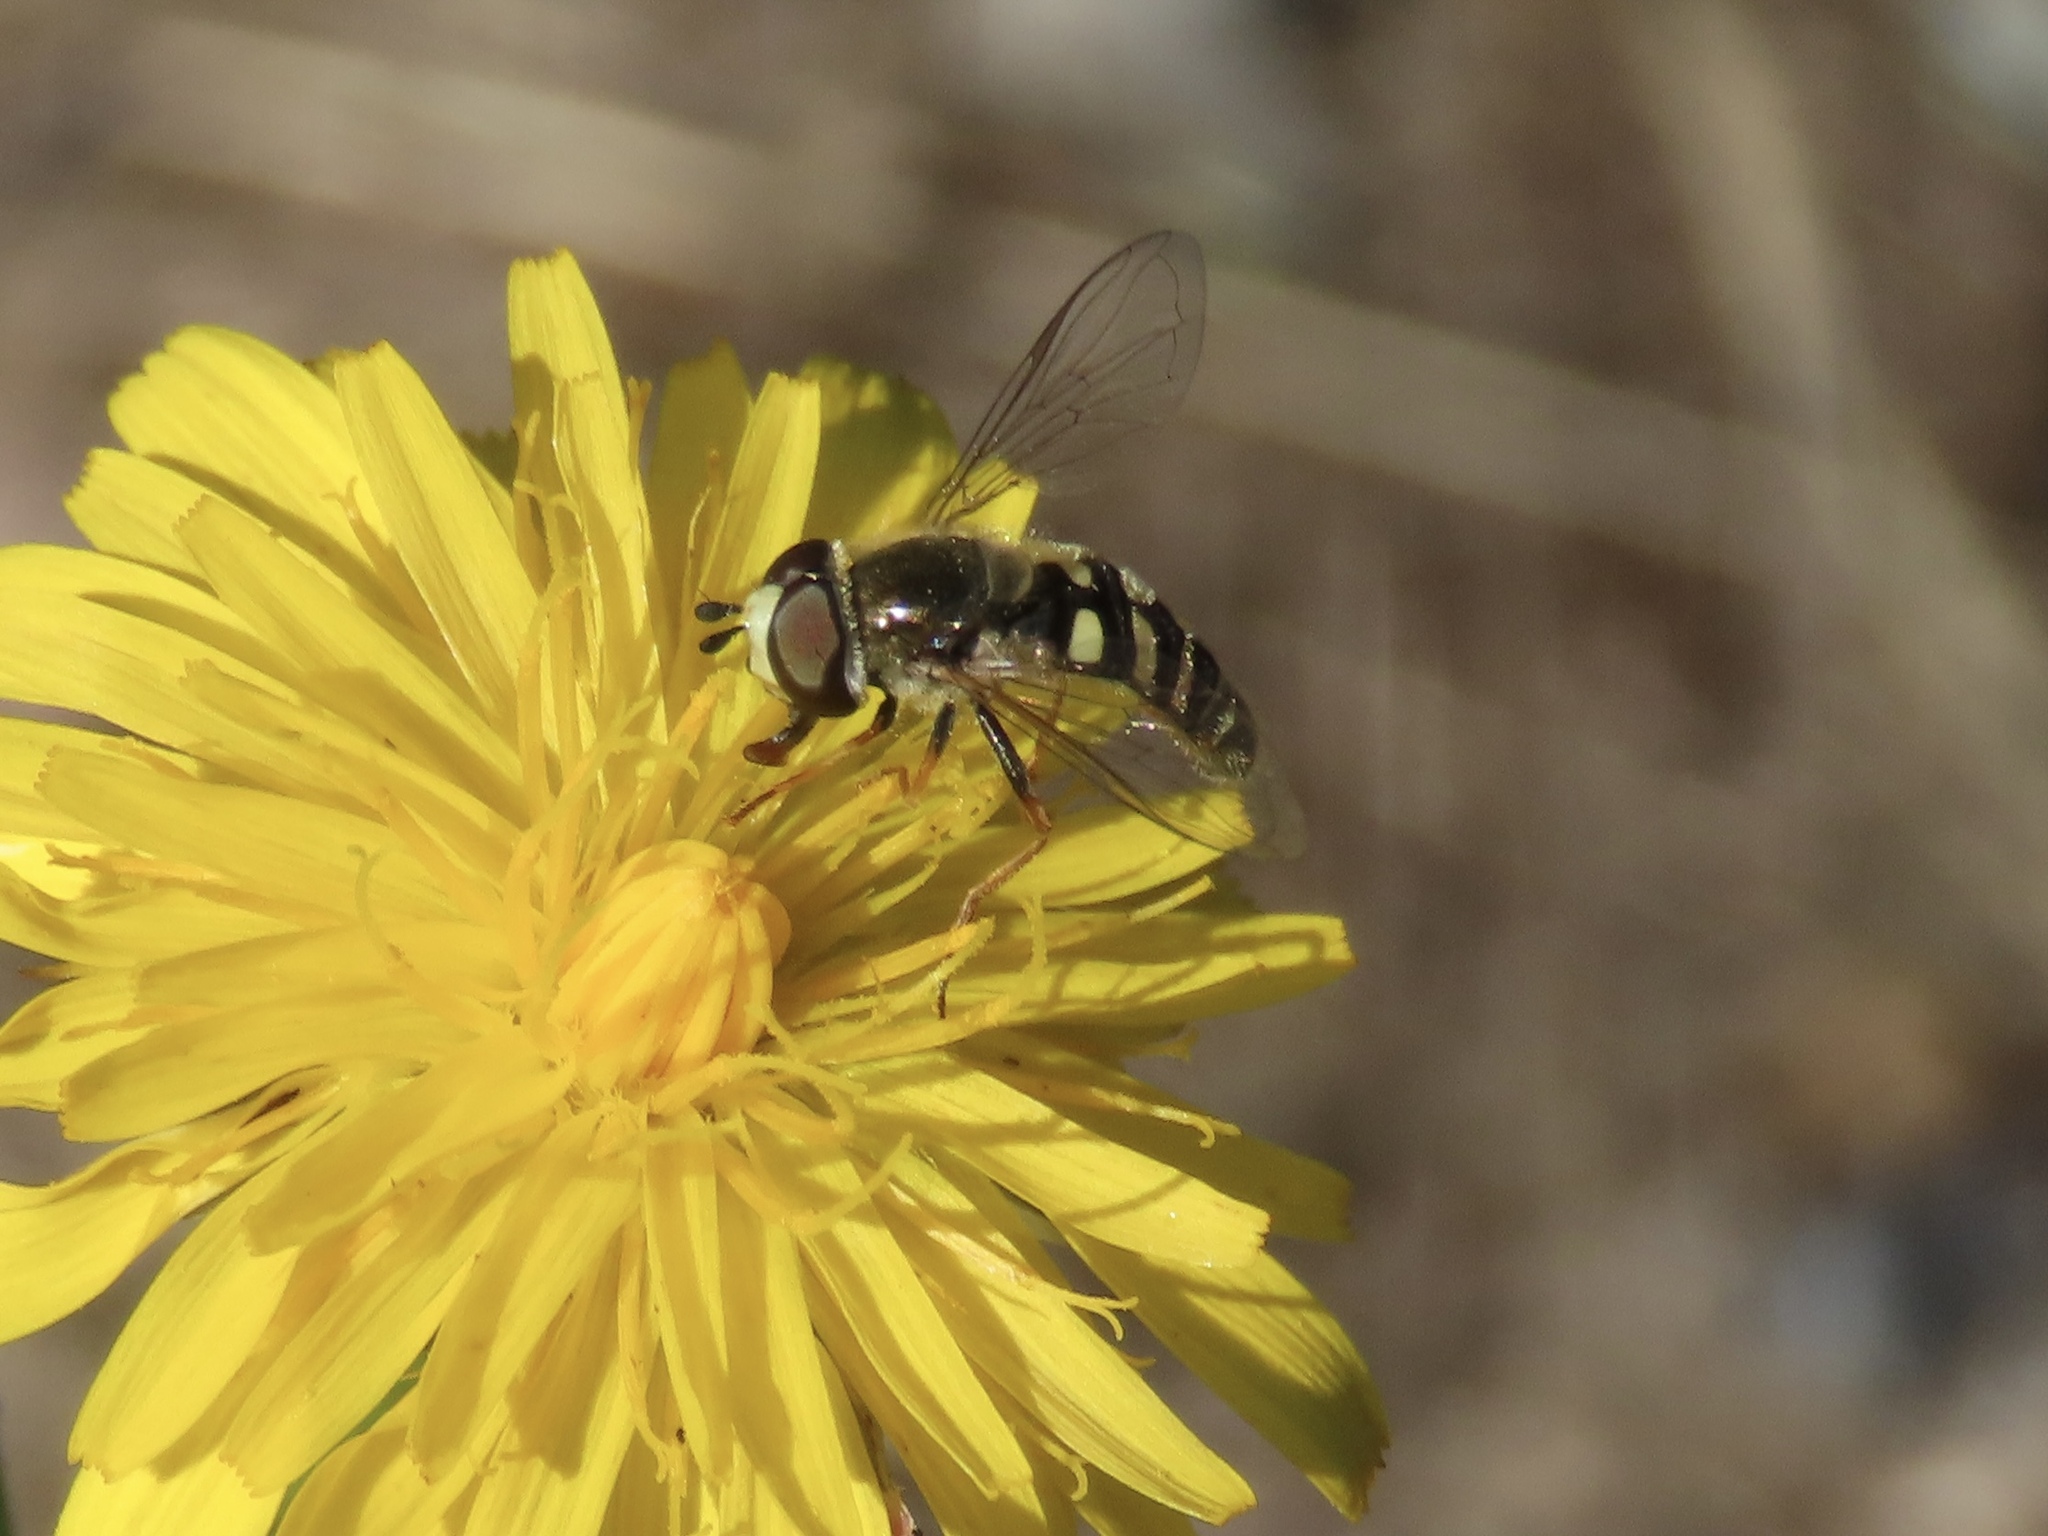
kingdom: Animalia
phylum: Arthropoda
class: Insecta
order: Diptera
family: Syrphidae
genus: Eupeodes
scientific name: Eupeodes volucris
